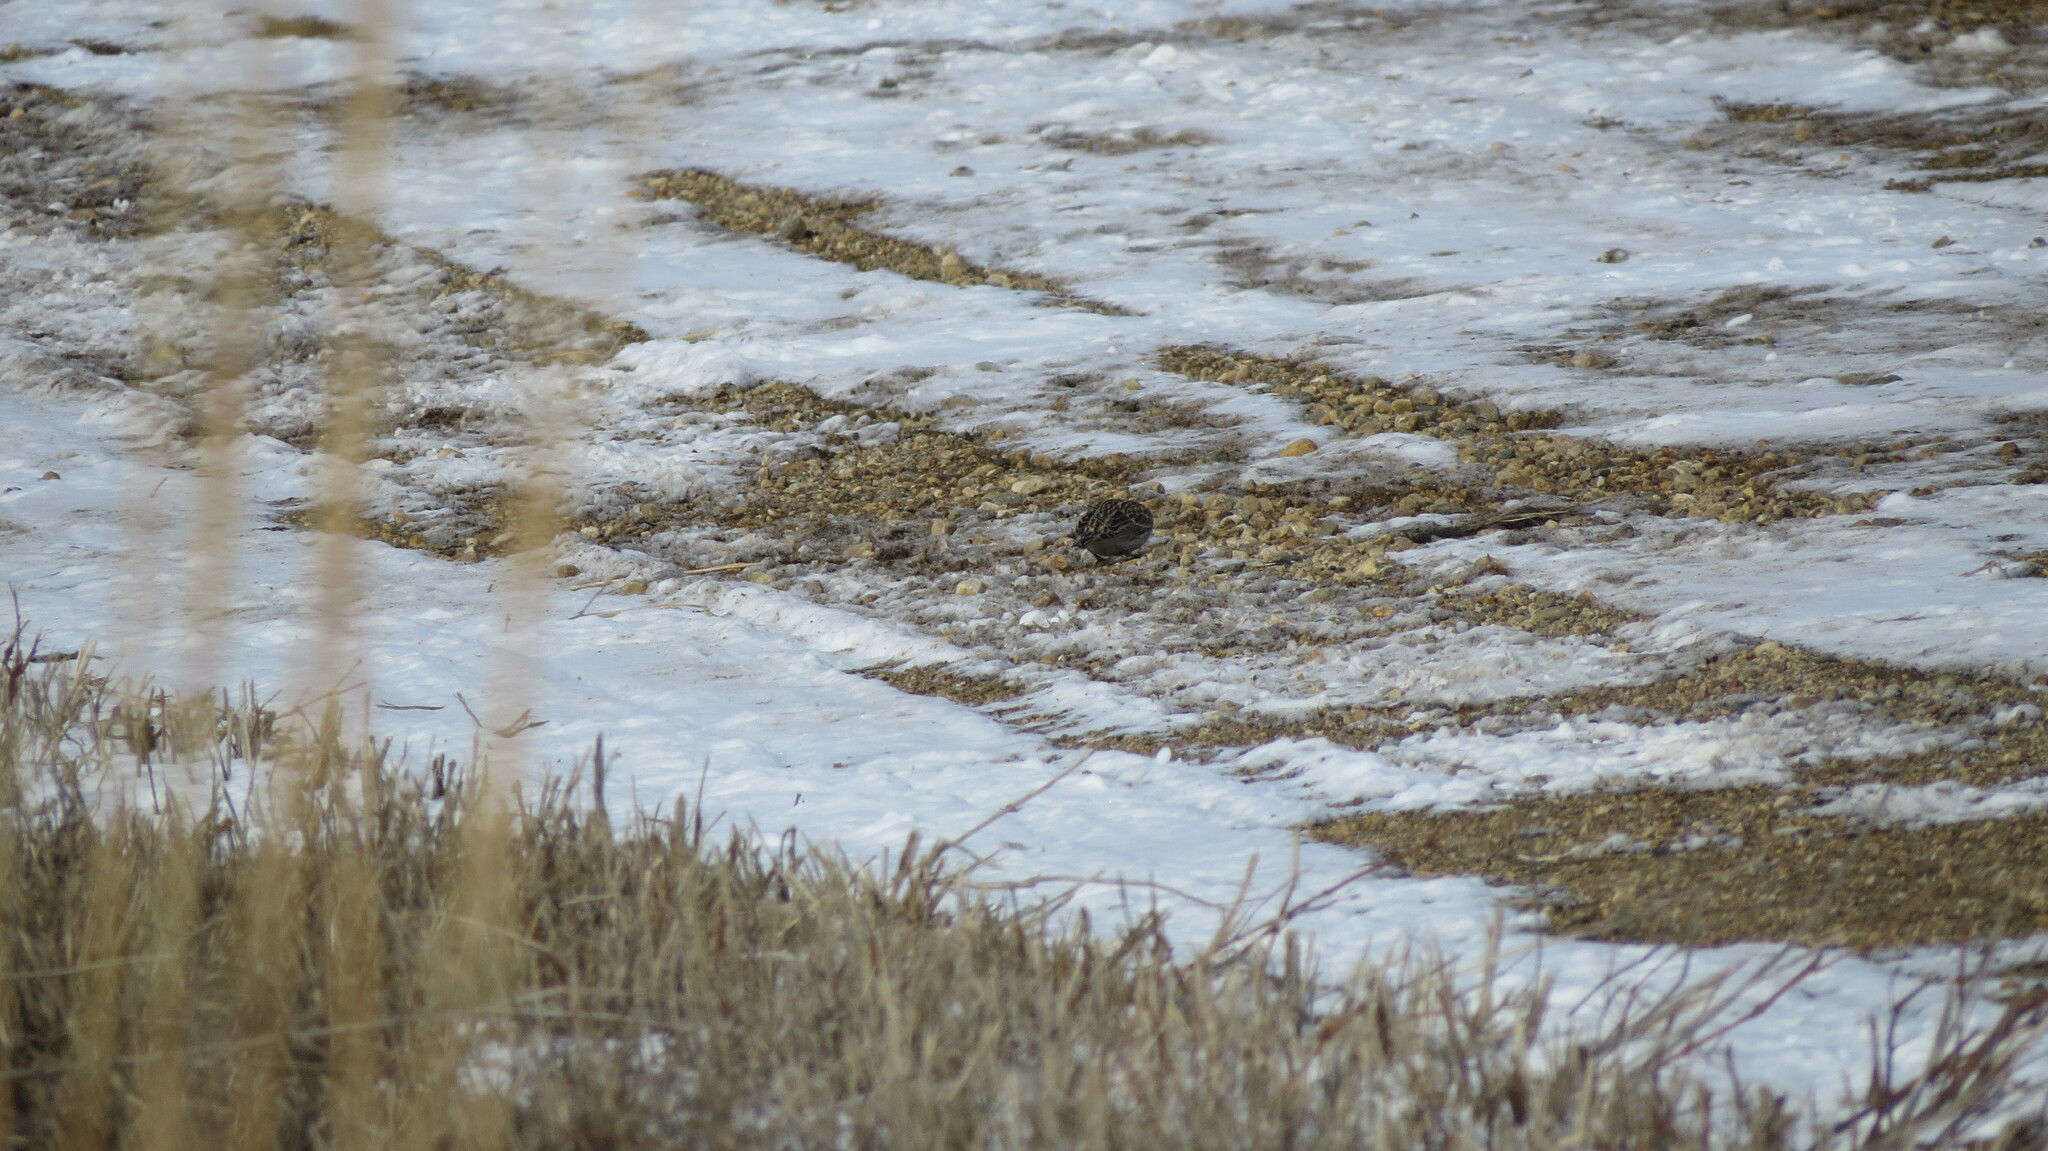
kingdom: Animalia
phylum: Chordata
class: Aves
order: Passeriformes
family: Calcariidae
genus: Calcarius
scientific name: Calcarius lapponicus
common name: Lapland longspur
